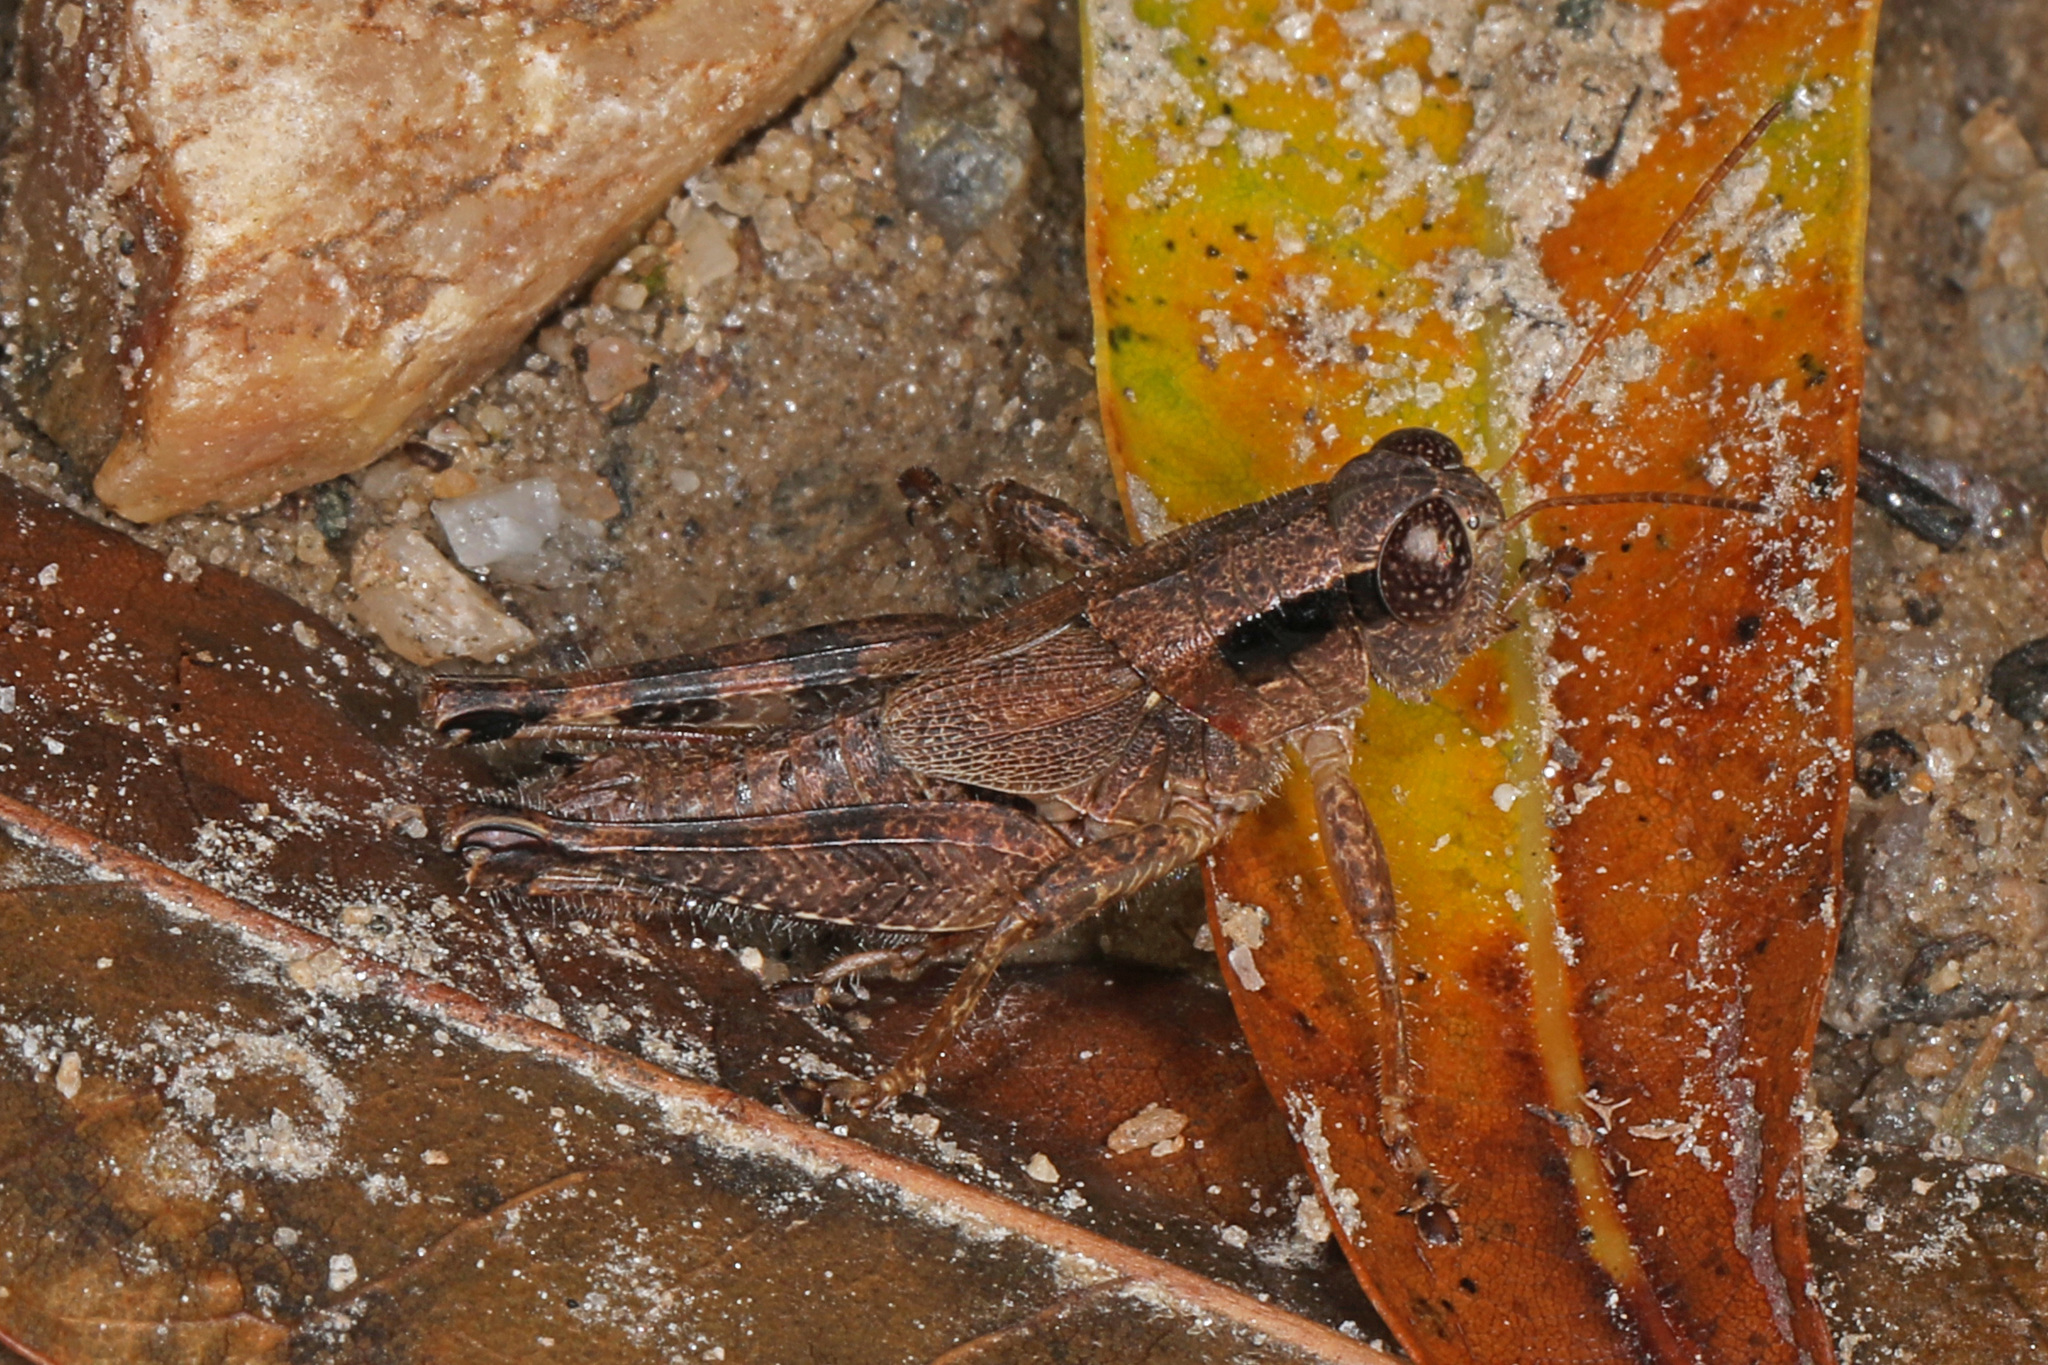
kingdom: Animalia
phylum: Arthropoda
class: Insecta
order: Orthoptera
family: Acrididae
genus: Melanoplus
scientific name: Melanoplus scudderi
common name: Scudder's short-winged locust
